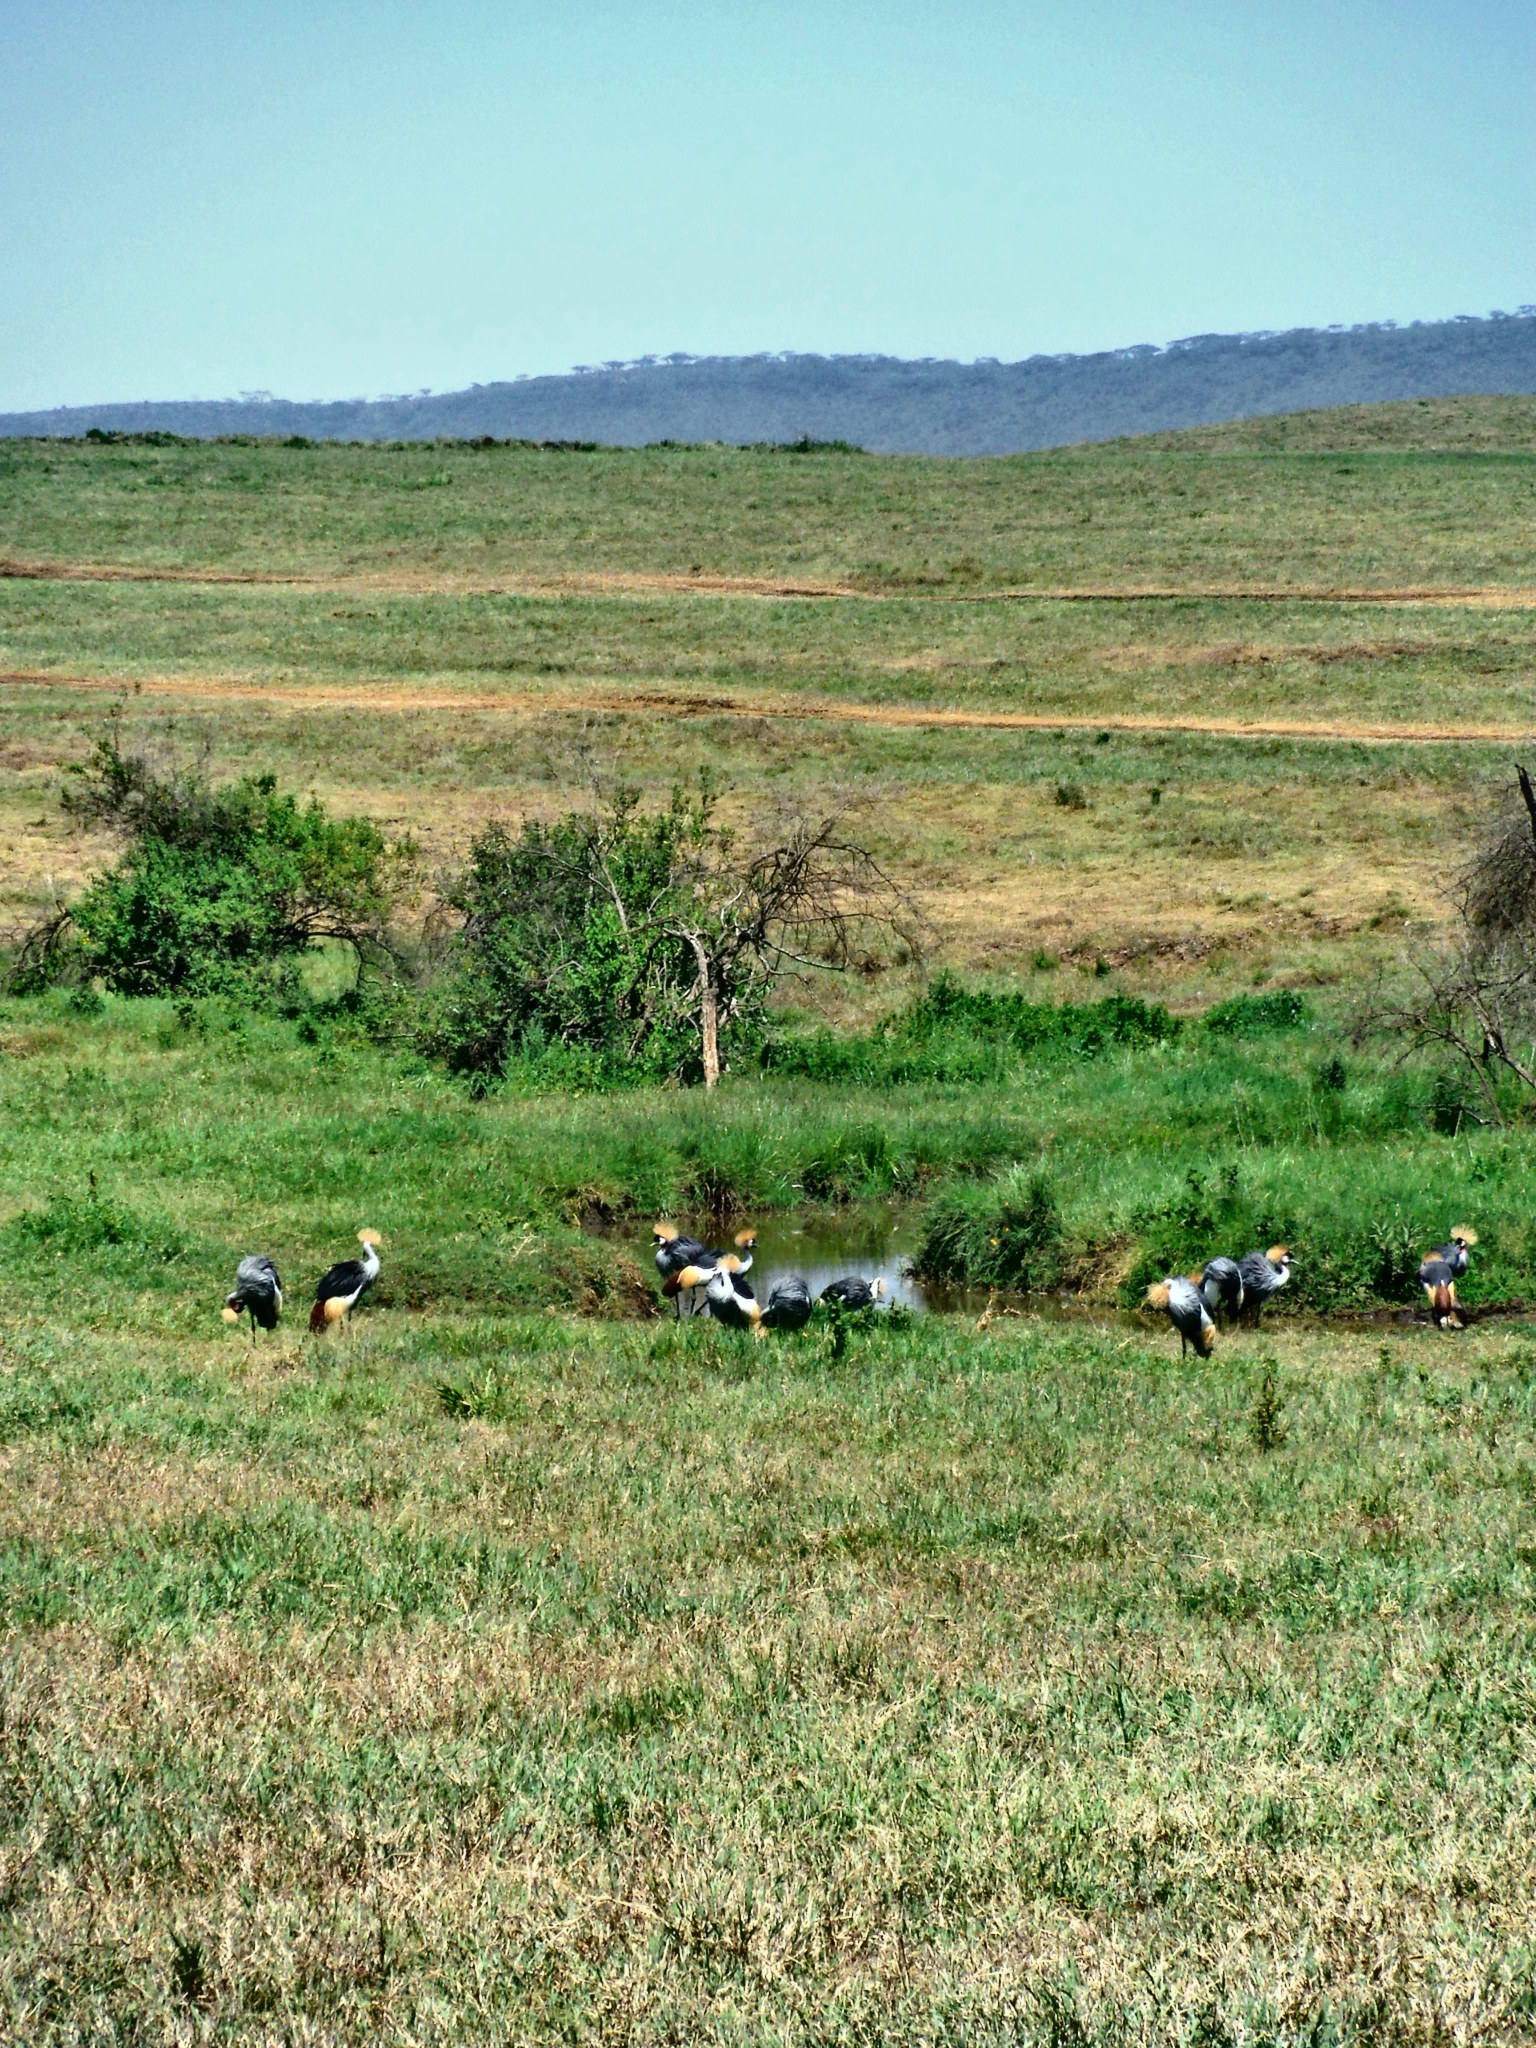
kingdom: Animalia
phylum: Chordata
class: Aves
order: Gruiformes
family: Gruidae
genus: Balearica
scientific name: Balearica regulorum
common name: Grey crowned crane
